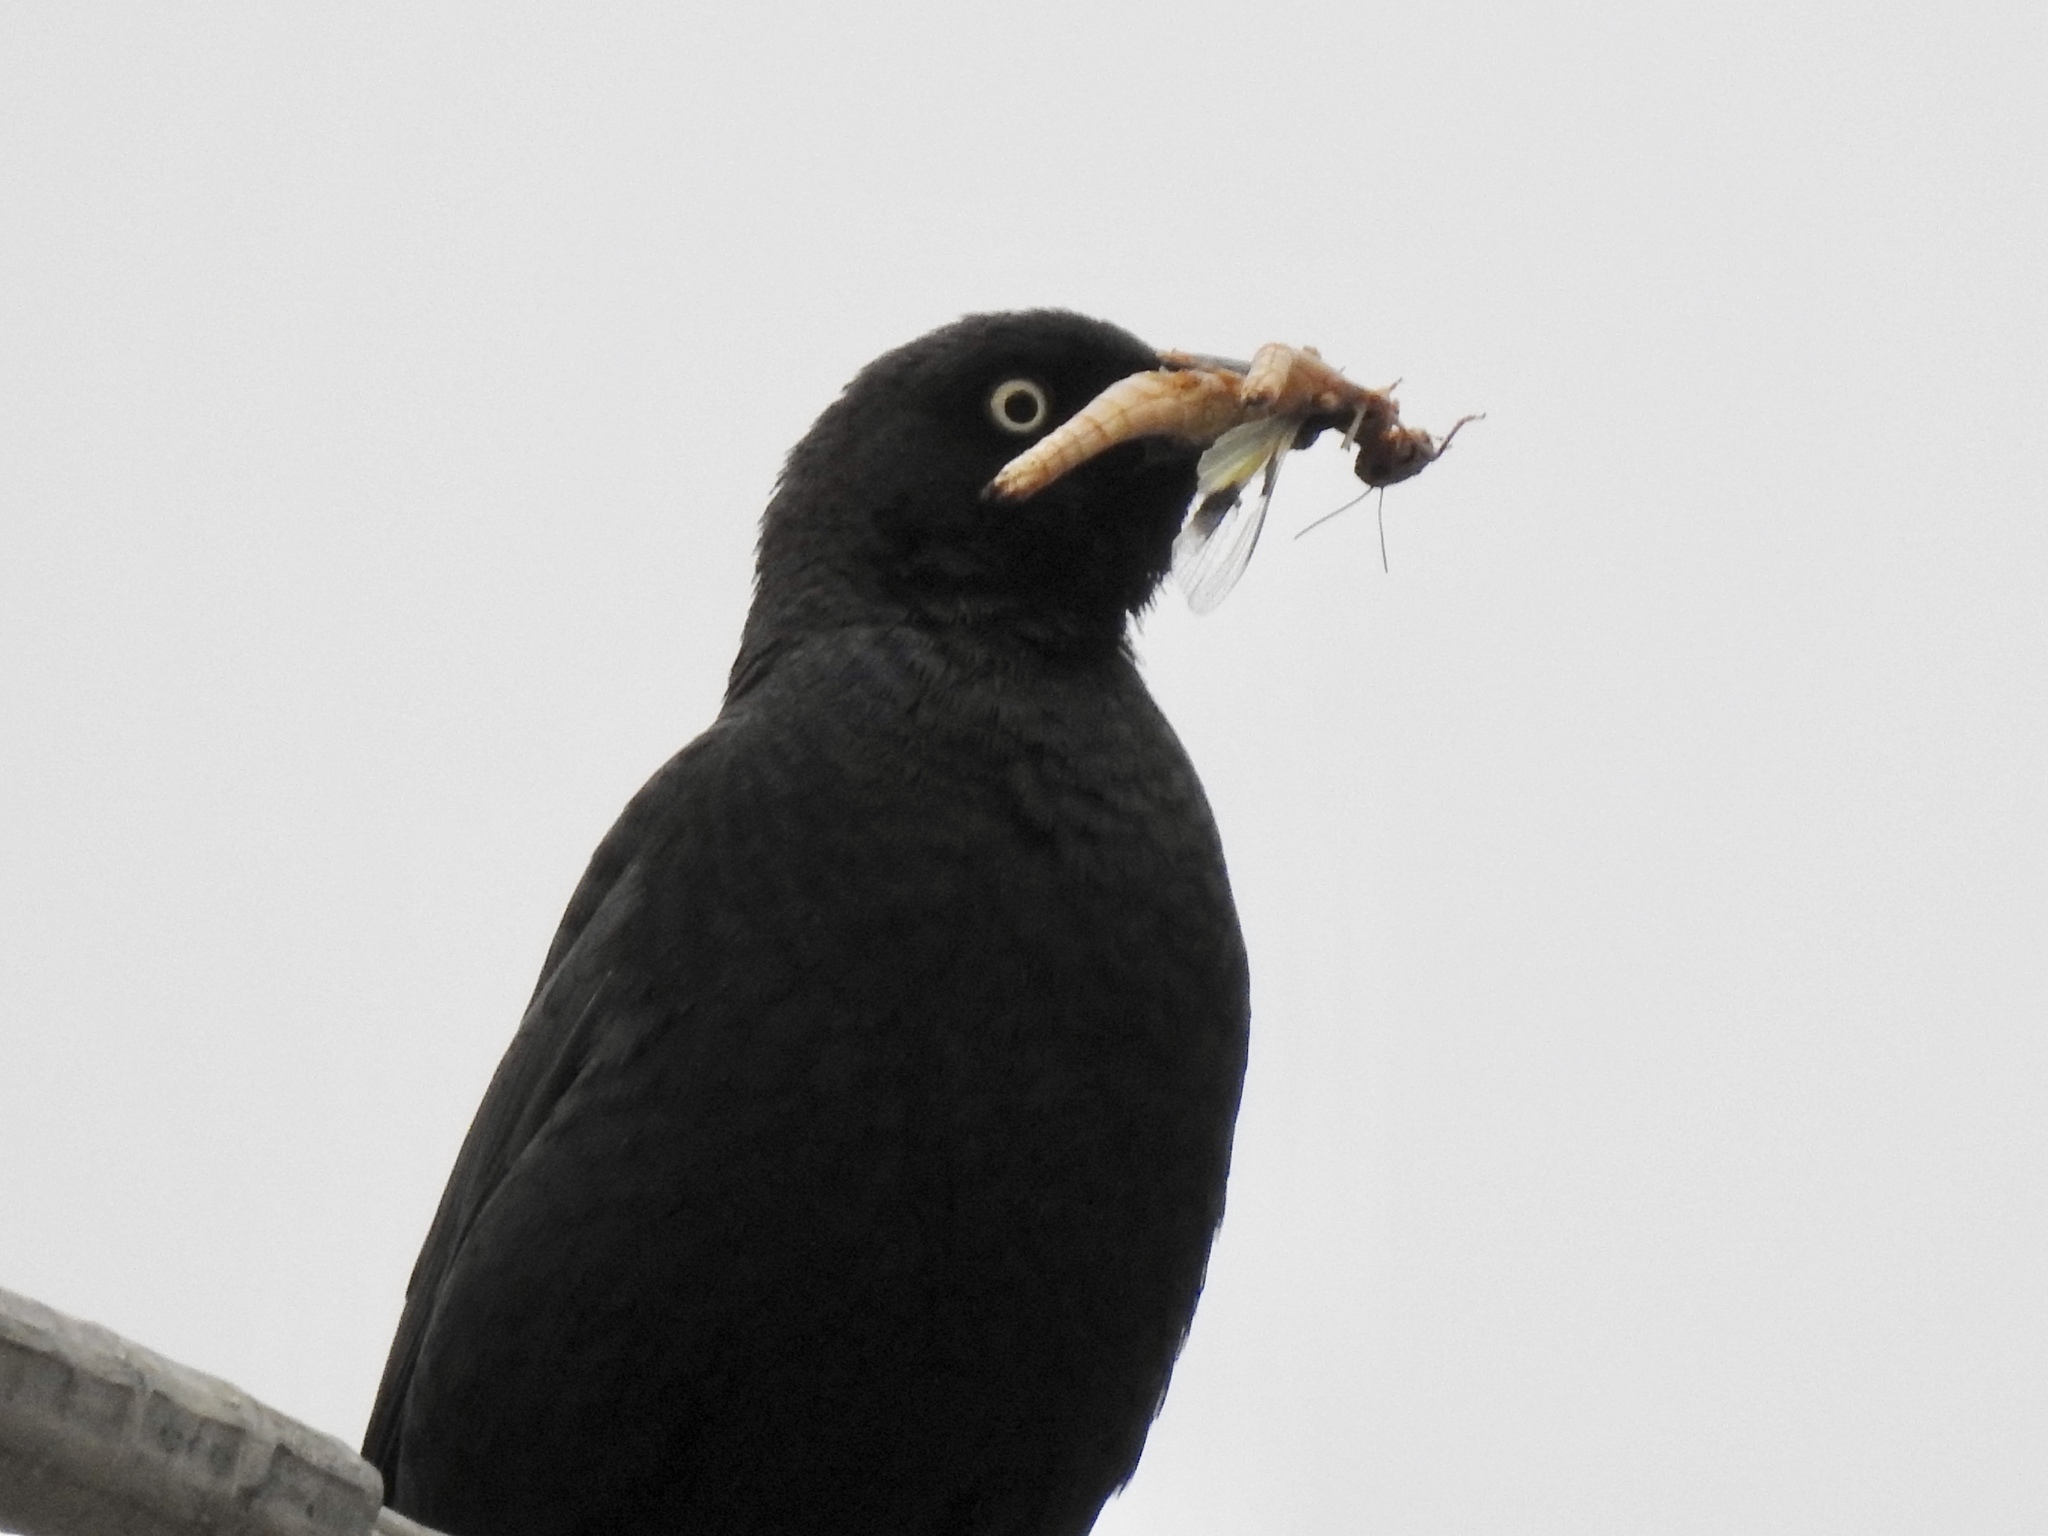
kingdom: Animalia
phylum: Chordata
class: Aves
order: Passeriformes
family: Icteridae
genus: Euphagus
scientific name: Euphagus cyanocephalus
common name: Brewer's blackbird
